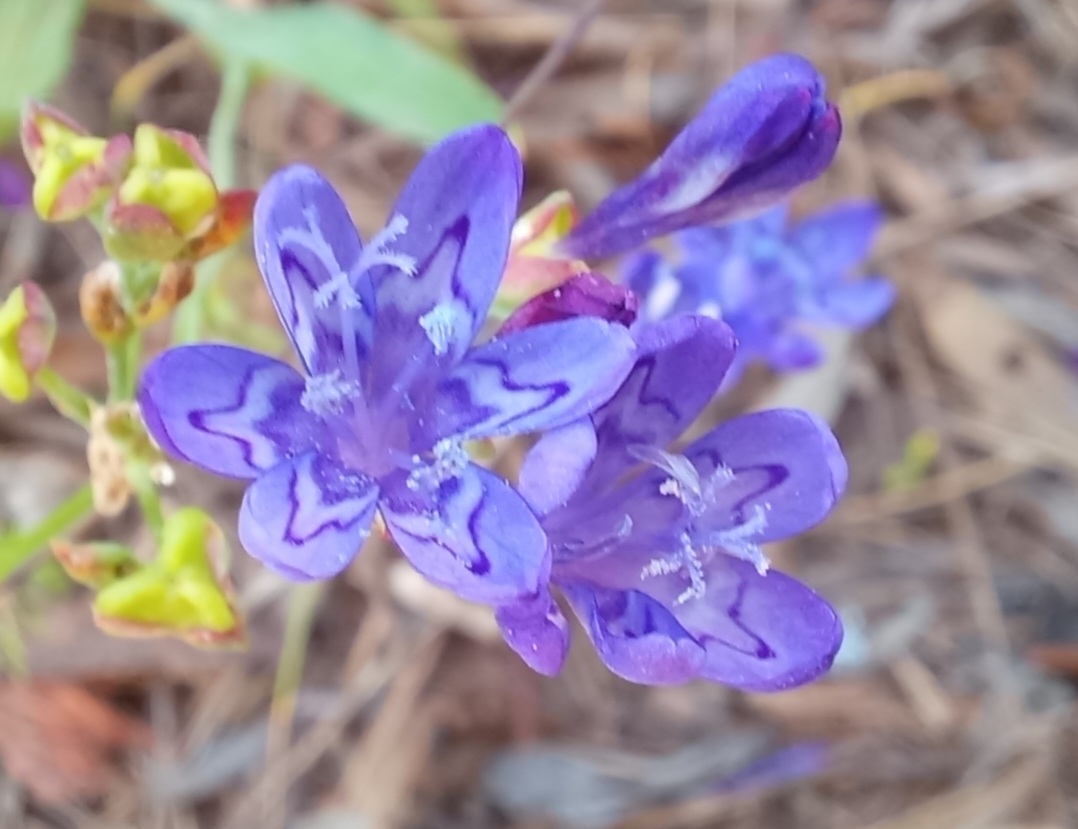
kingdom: Plantae
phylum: Tracheophyta
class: Liliopsida
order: Asparagales
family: Iridaceae
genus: Codonorhiza
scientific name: Codonorhiza corymbosa
